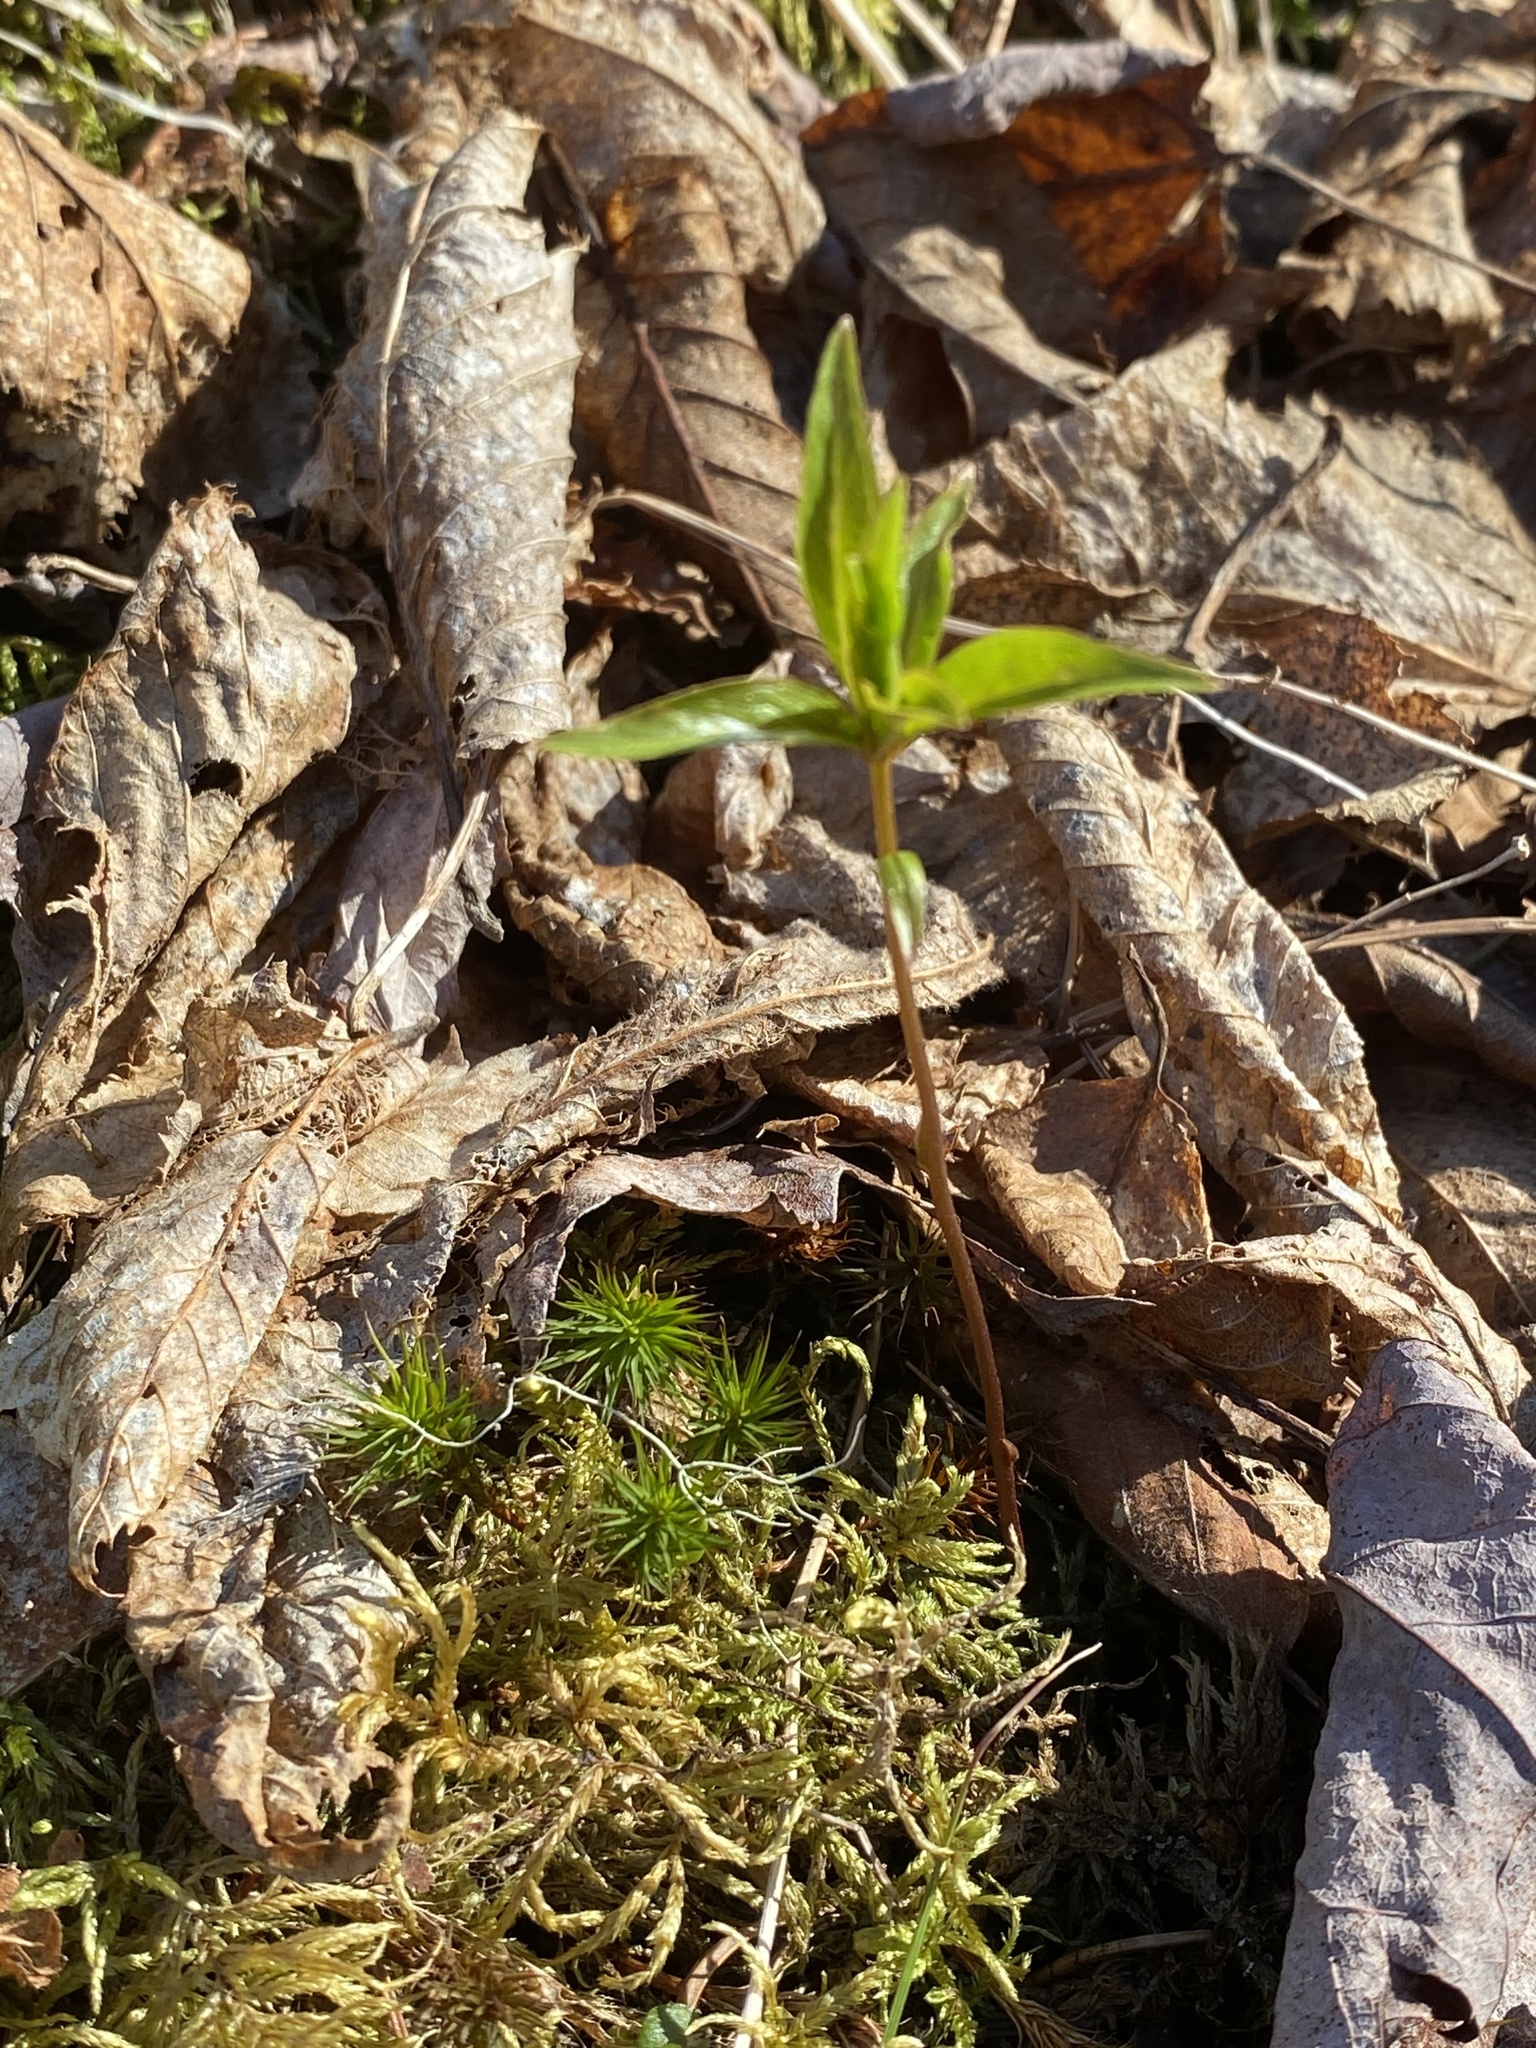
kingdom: Plantae
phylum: Tracheophyta
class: Magnoliopsida
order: Ericales
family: Primulaceae
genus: Lysimachia
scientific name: Lysimachia borealis
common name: American starflower
